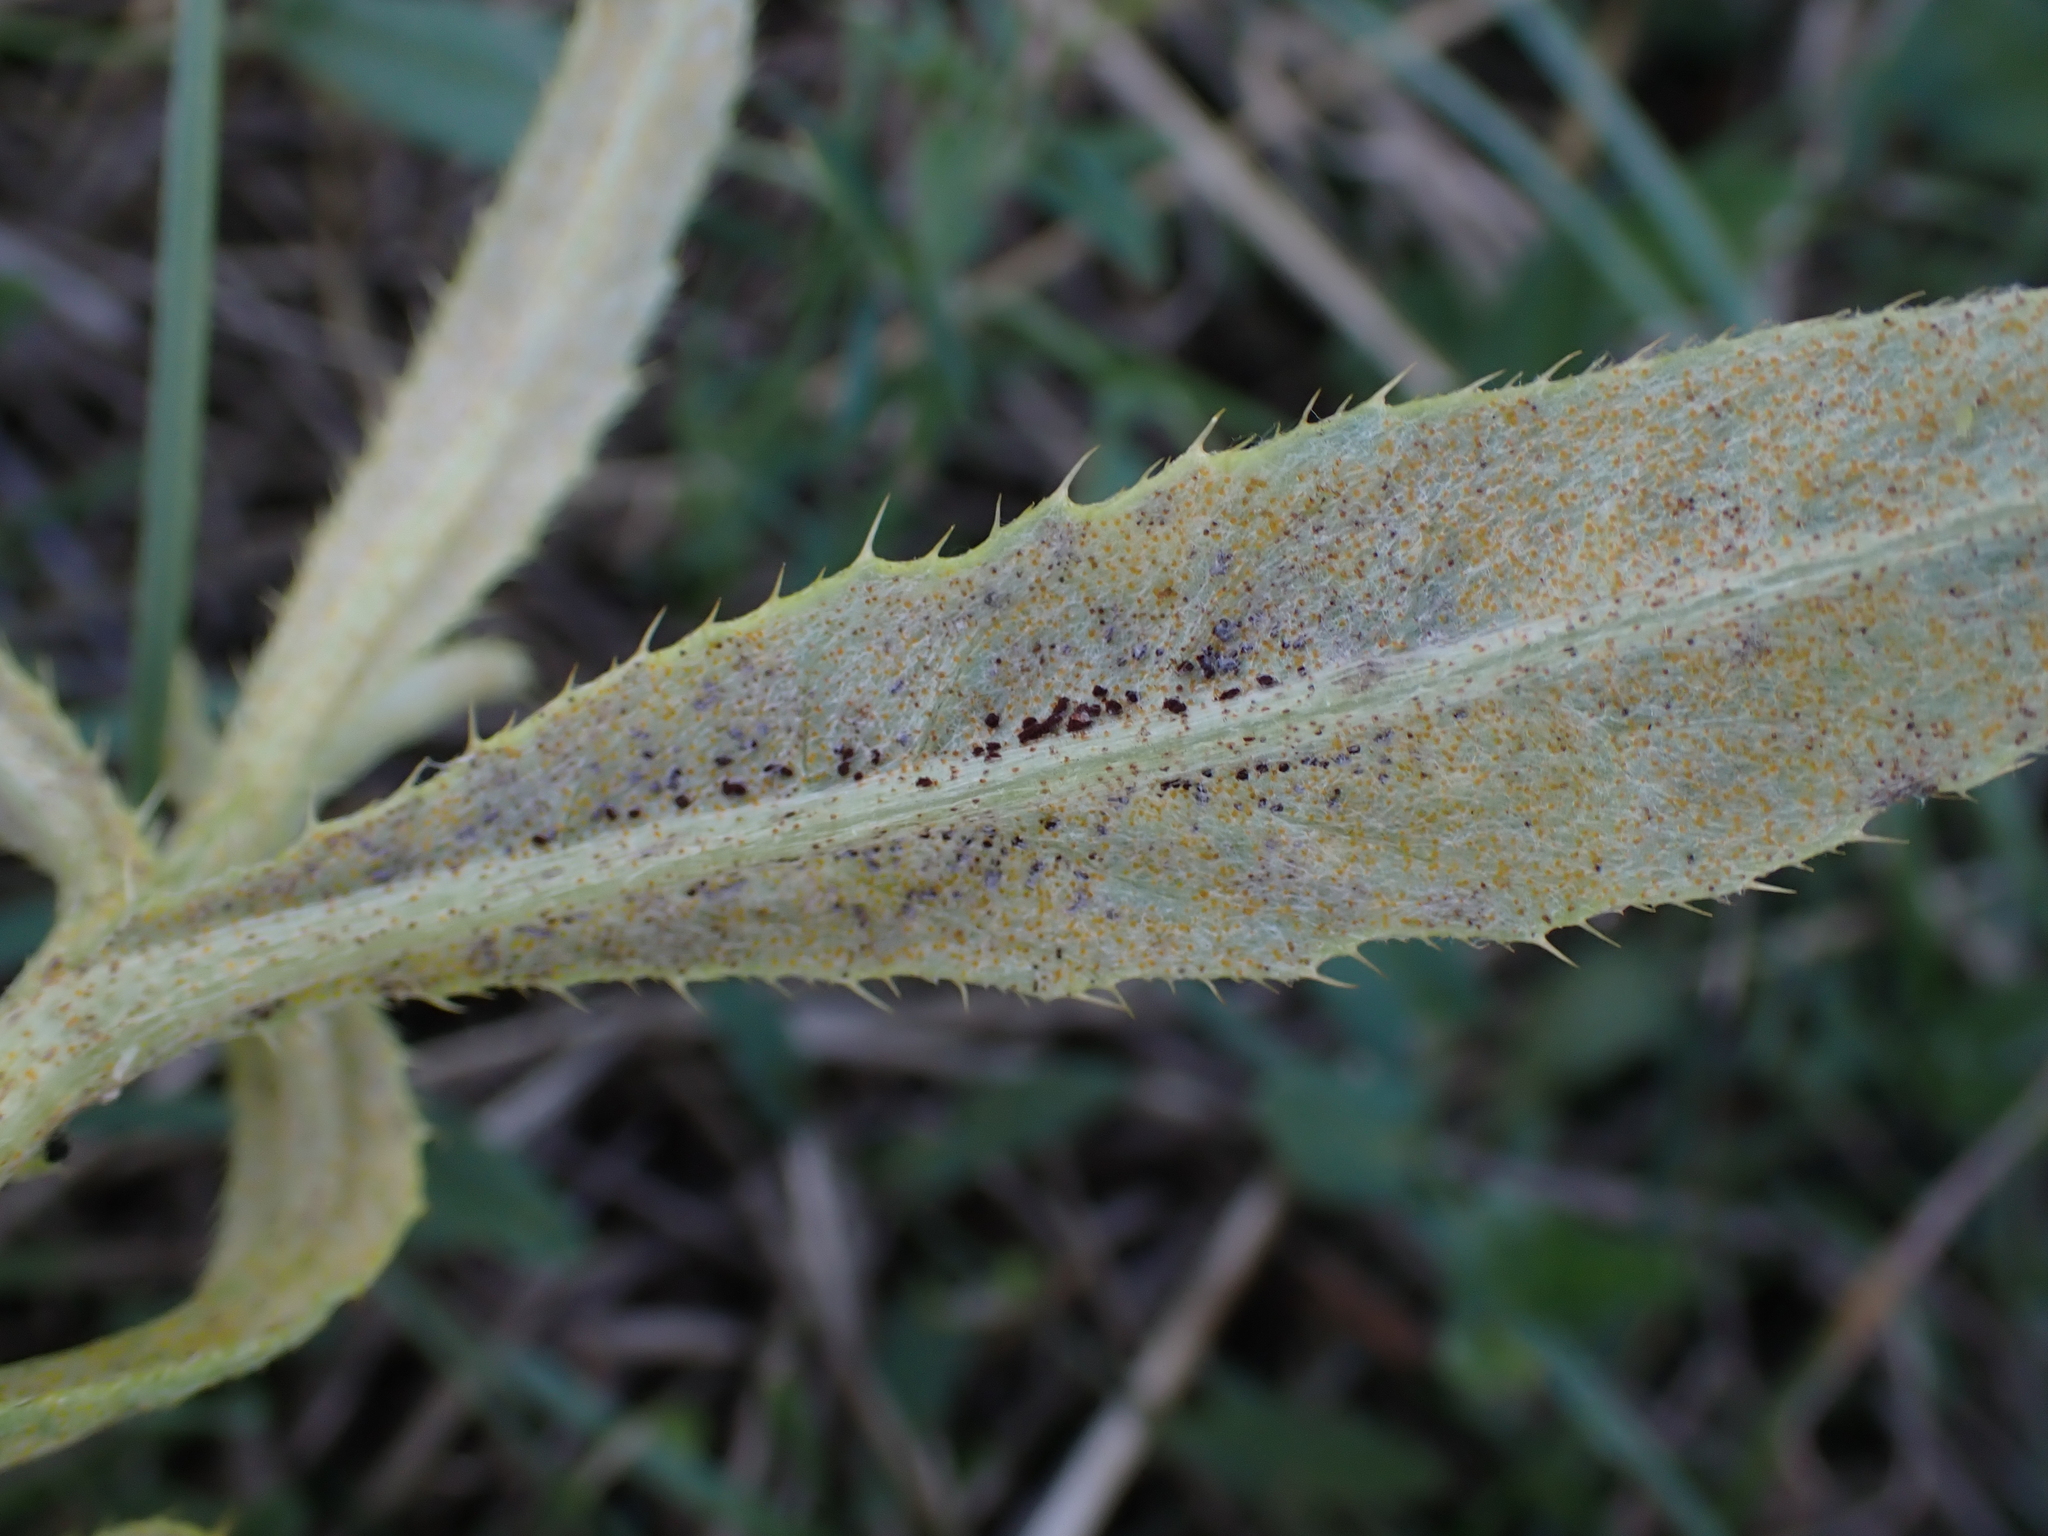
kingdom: Fungi
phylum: Basidiomycota
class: Pucciniomycetes
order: Pucciniales
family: Pucciniaceae
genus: Puccinia
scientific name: Puccinia suaveolens
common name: Thistle rust
